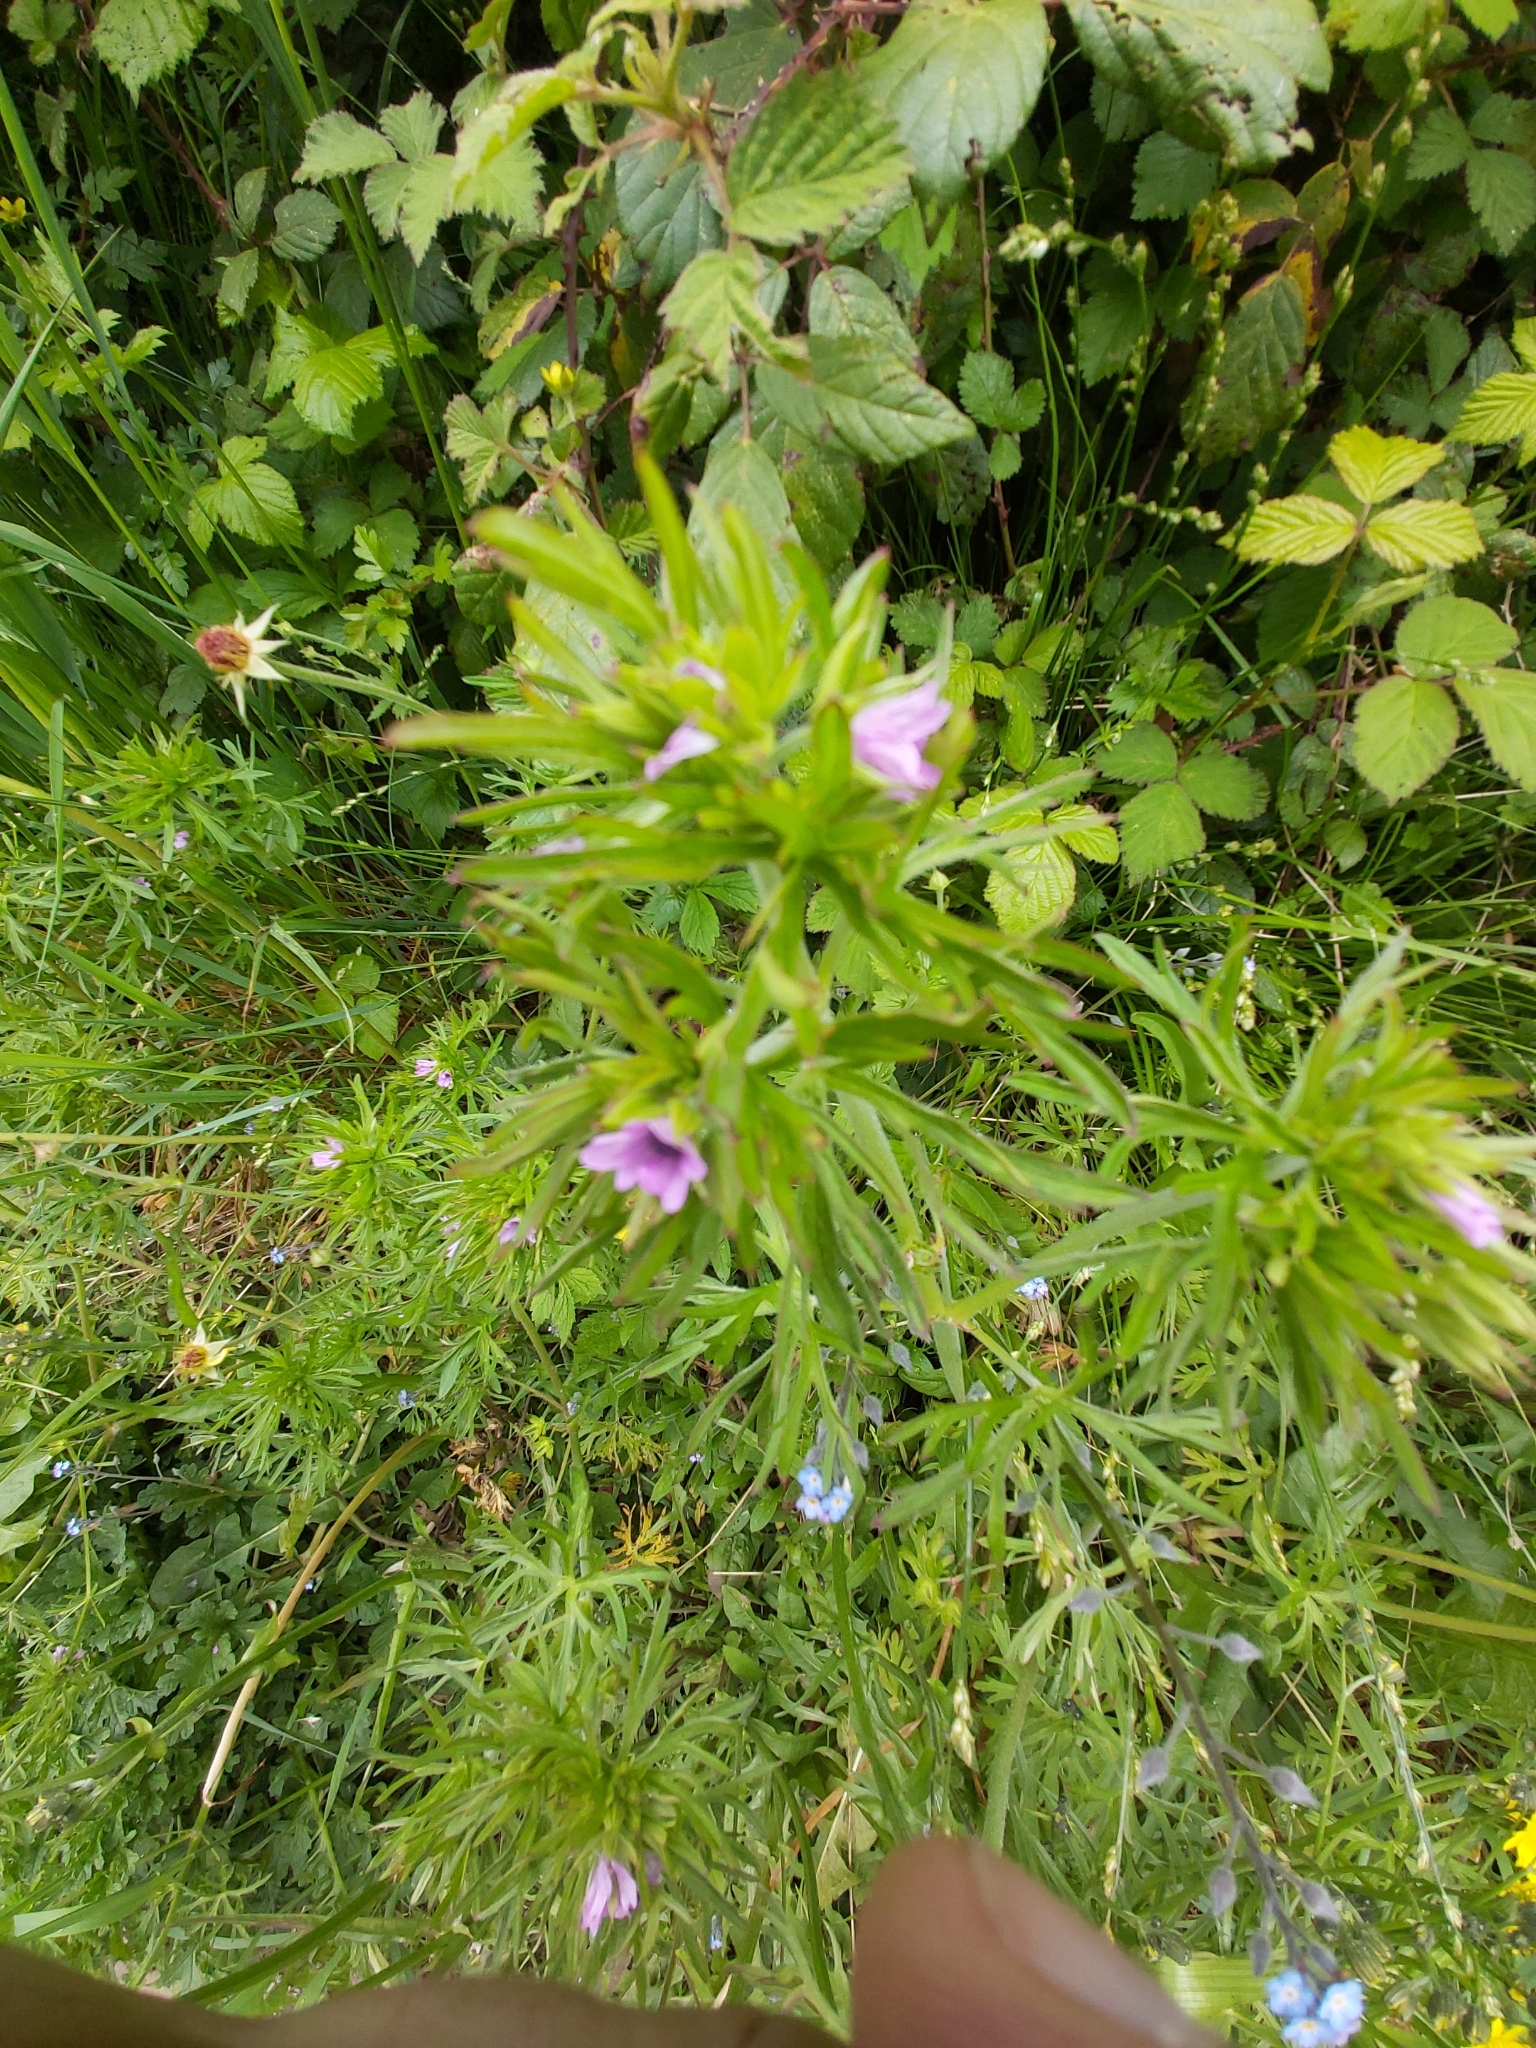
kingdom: Plantae
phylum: Tracheophyta
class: Magnoliopsida
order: Geraniales
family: Geraniaceae
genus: Geranium
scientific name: Geranium dissectum
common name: Cut-leaved crane's-bill
